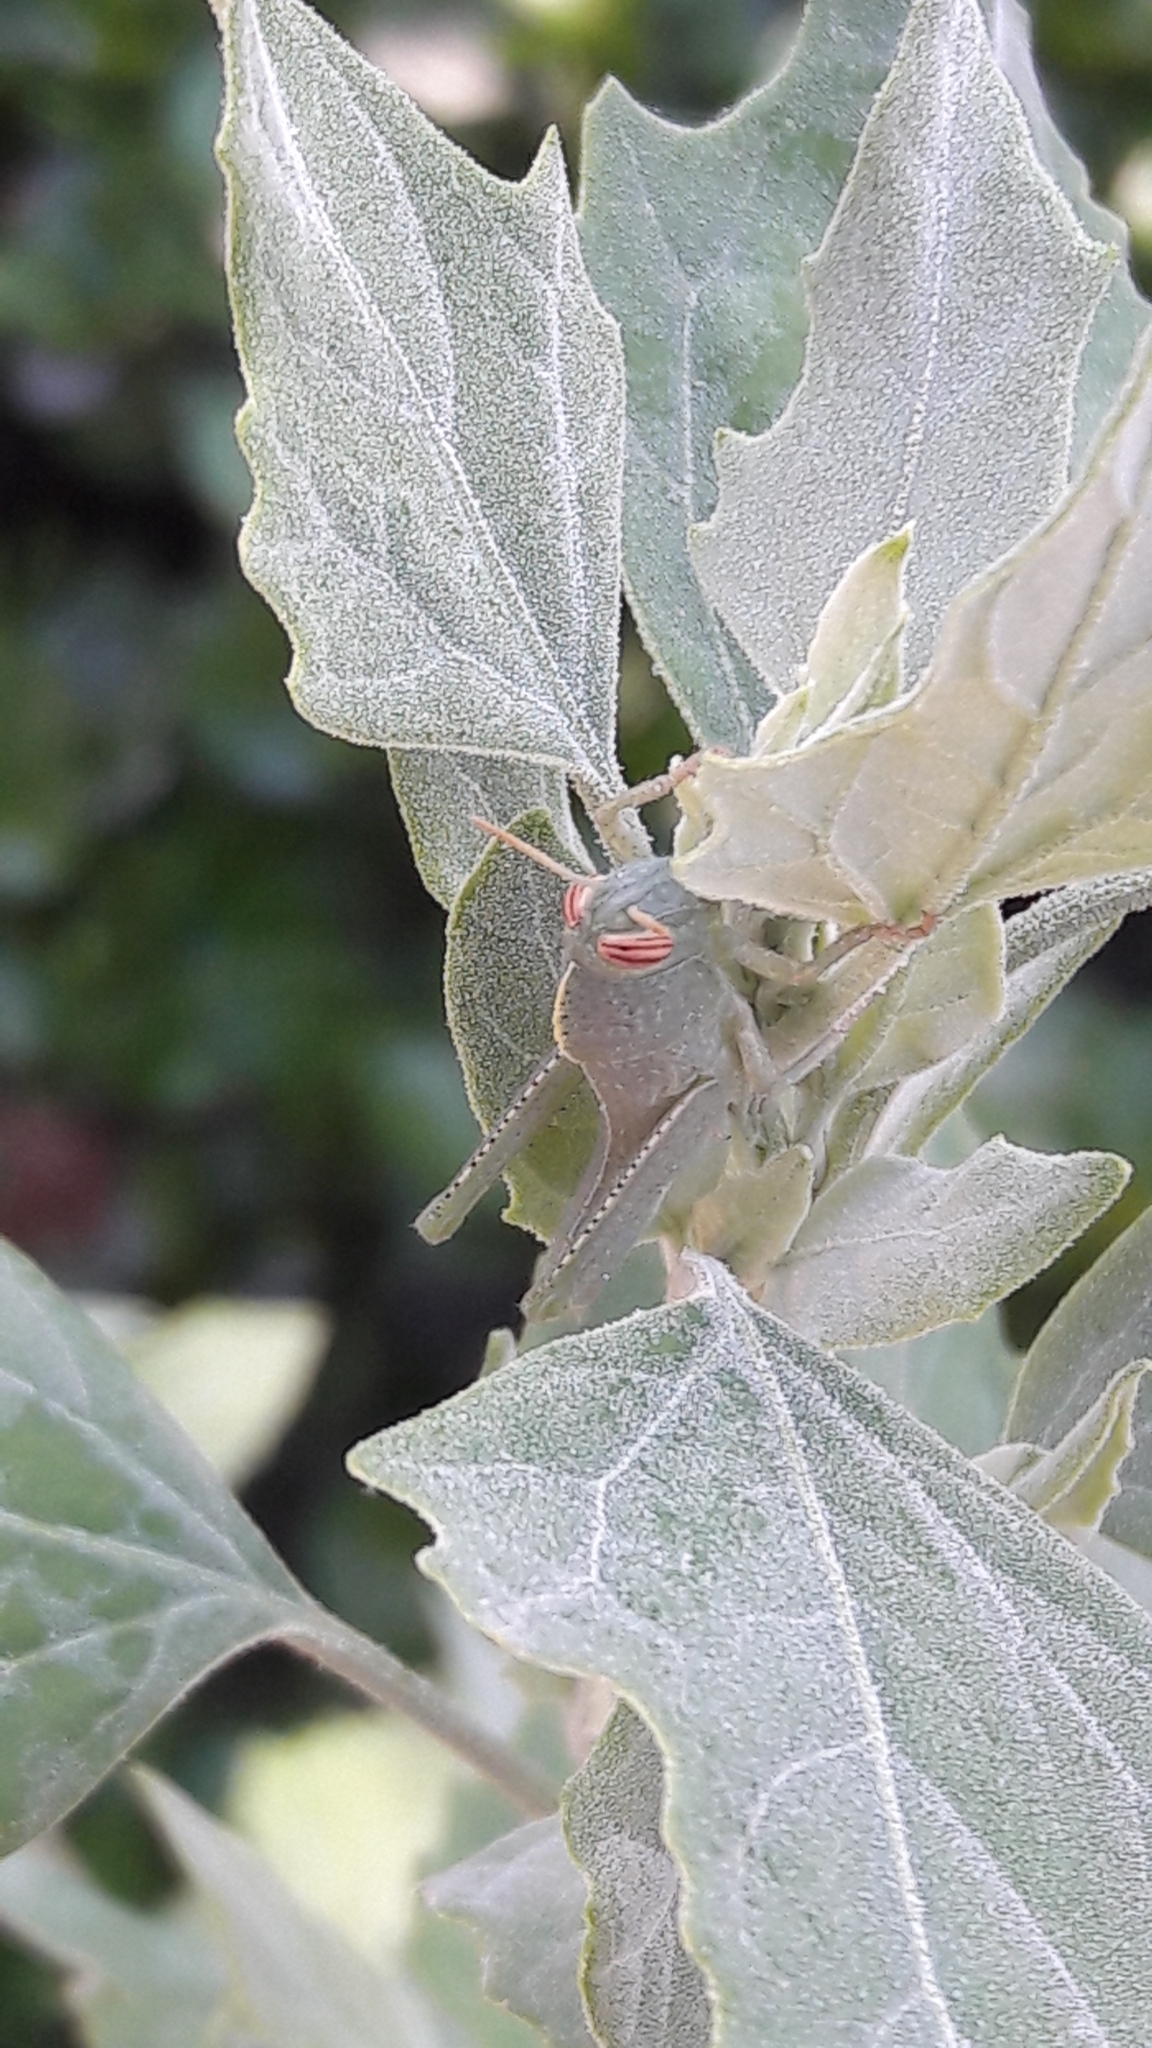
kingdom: Animalia
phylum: Arthropoda
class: Insecta
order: Orthoptera
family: Acrididae
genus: Anacridium
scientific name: Anacridium aegyptium
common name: Egyptian grasshopper
